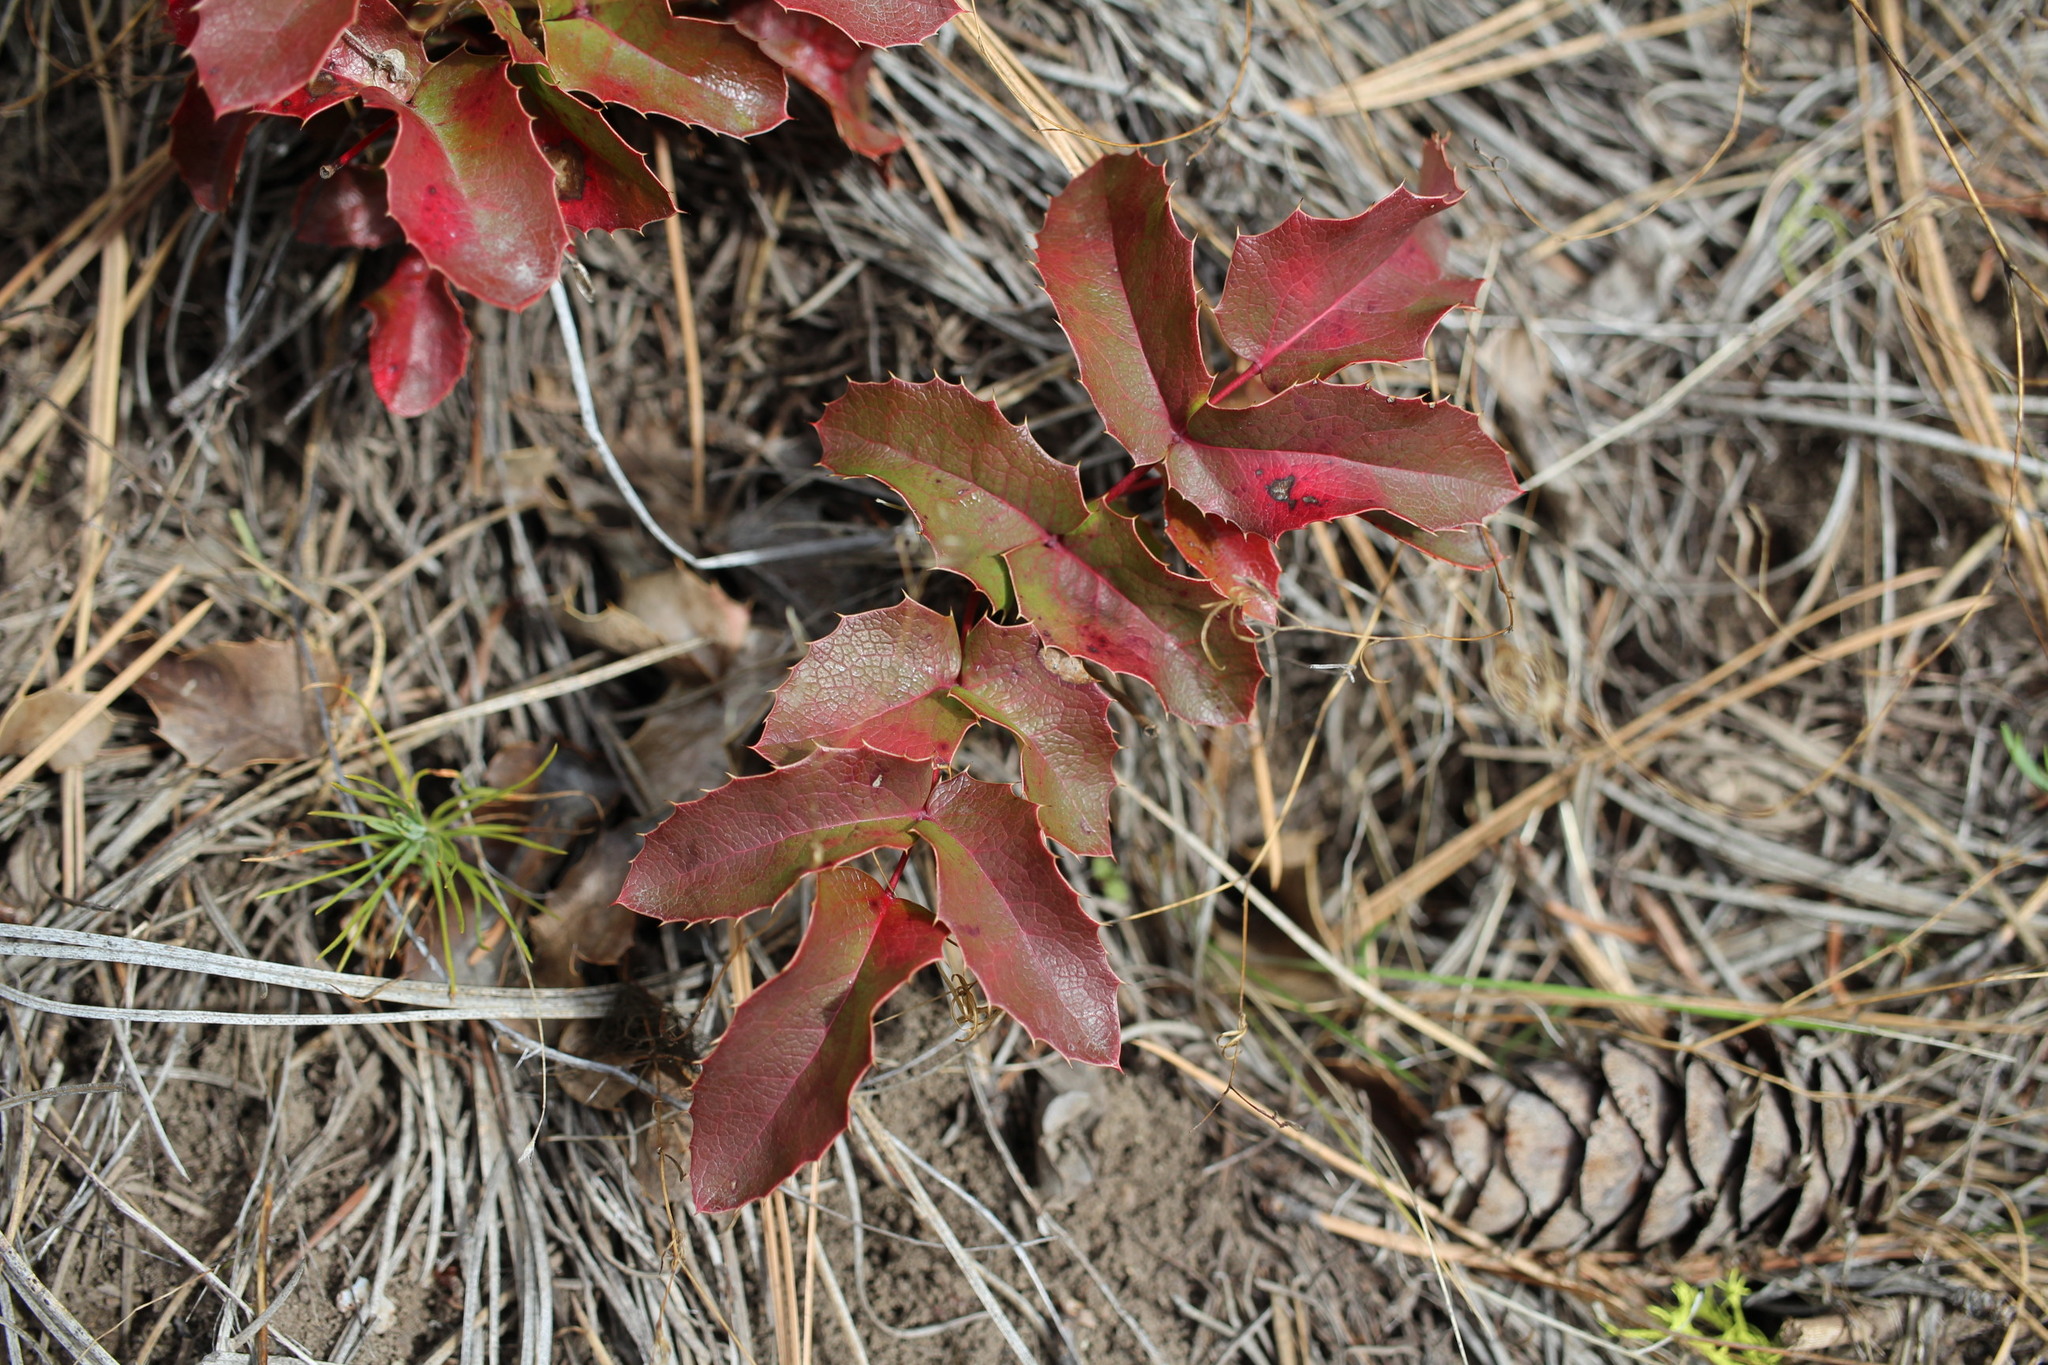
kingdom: Plantae
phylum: Tracheophyta
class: Magnoliopsida
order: Ranunculales
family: Berberidaceae
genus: Mahonia
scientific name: Mahonia aquifolium
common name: Oregon-grape
